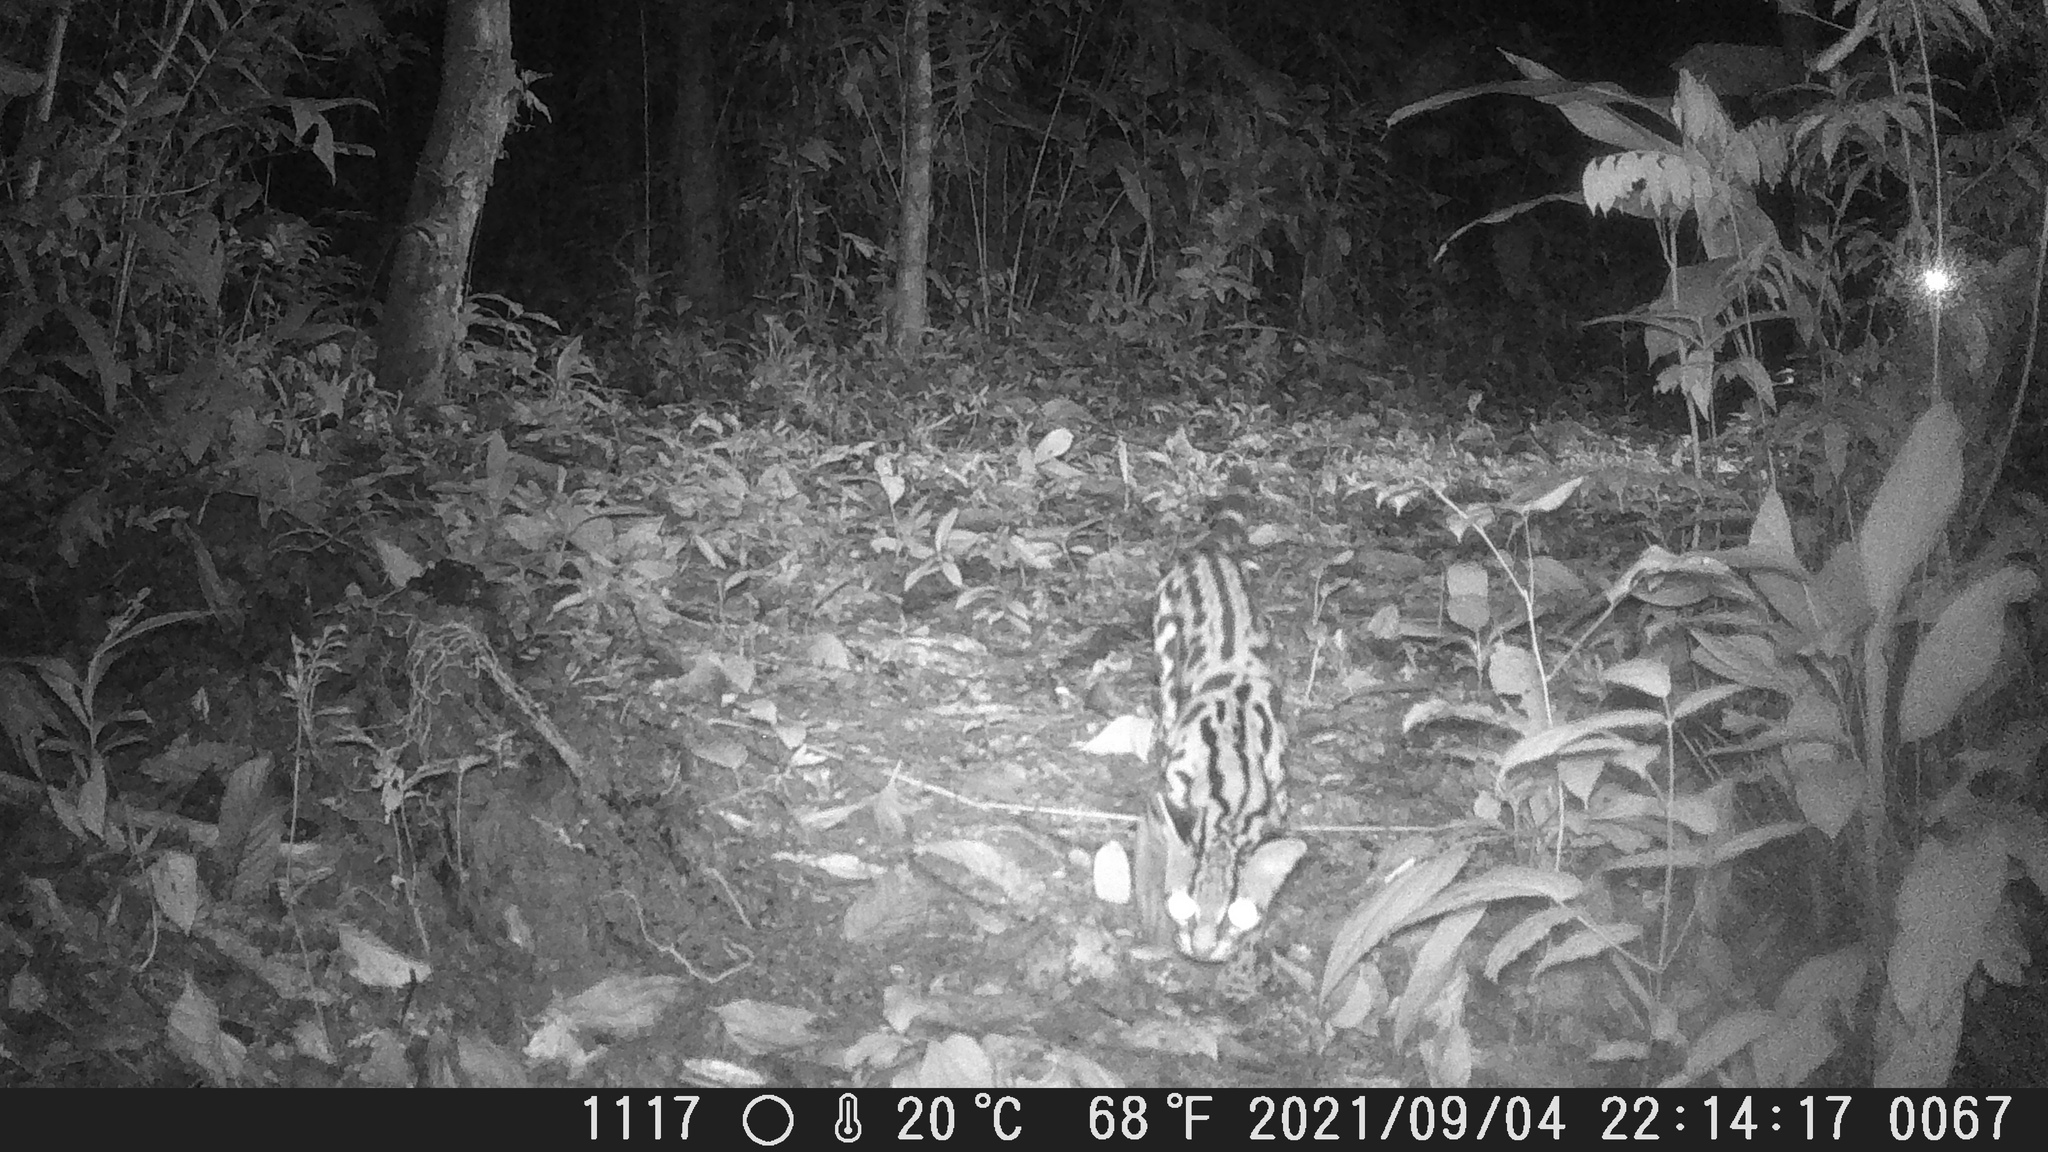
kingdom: Animalia
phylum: Chordata
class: Mammalia
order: Carnivora
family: Felidae
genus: Leopardus
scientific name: Leopardus wiedii
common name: Margay
